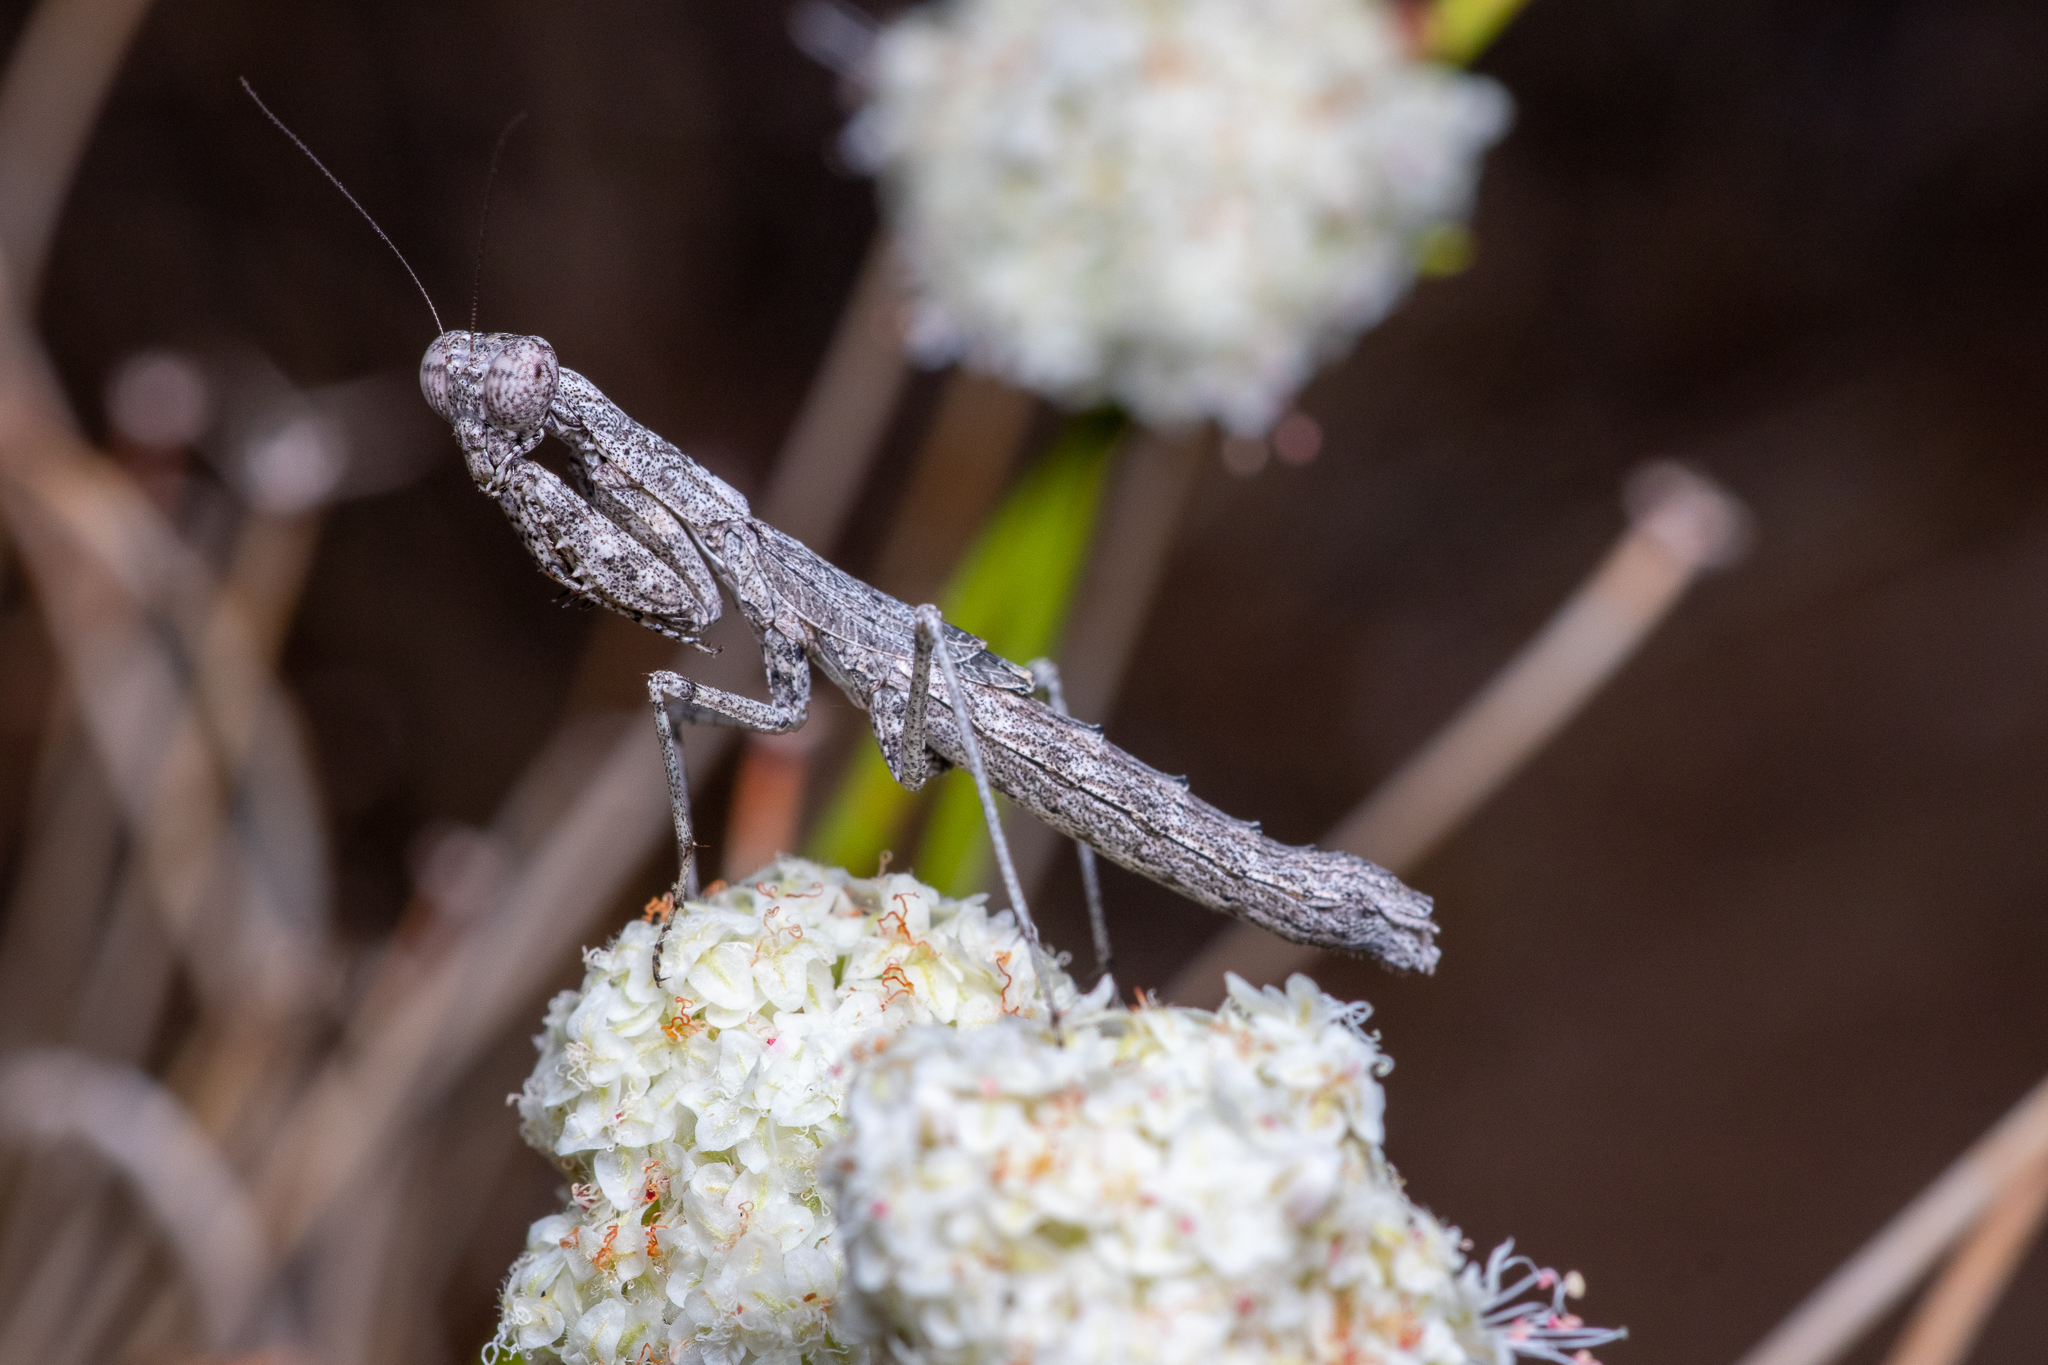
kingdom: Animalia
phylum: Arthropoda
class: Insecta
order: Mantodea
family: Amelidae
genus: Litaneutria
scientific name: Litaneutria ocularis
